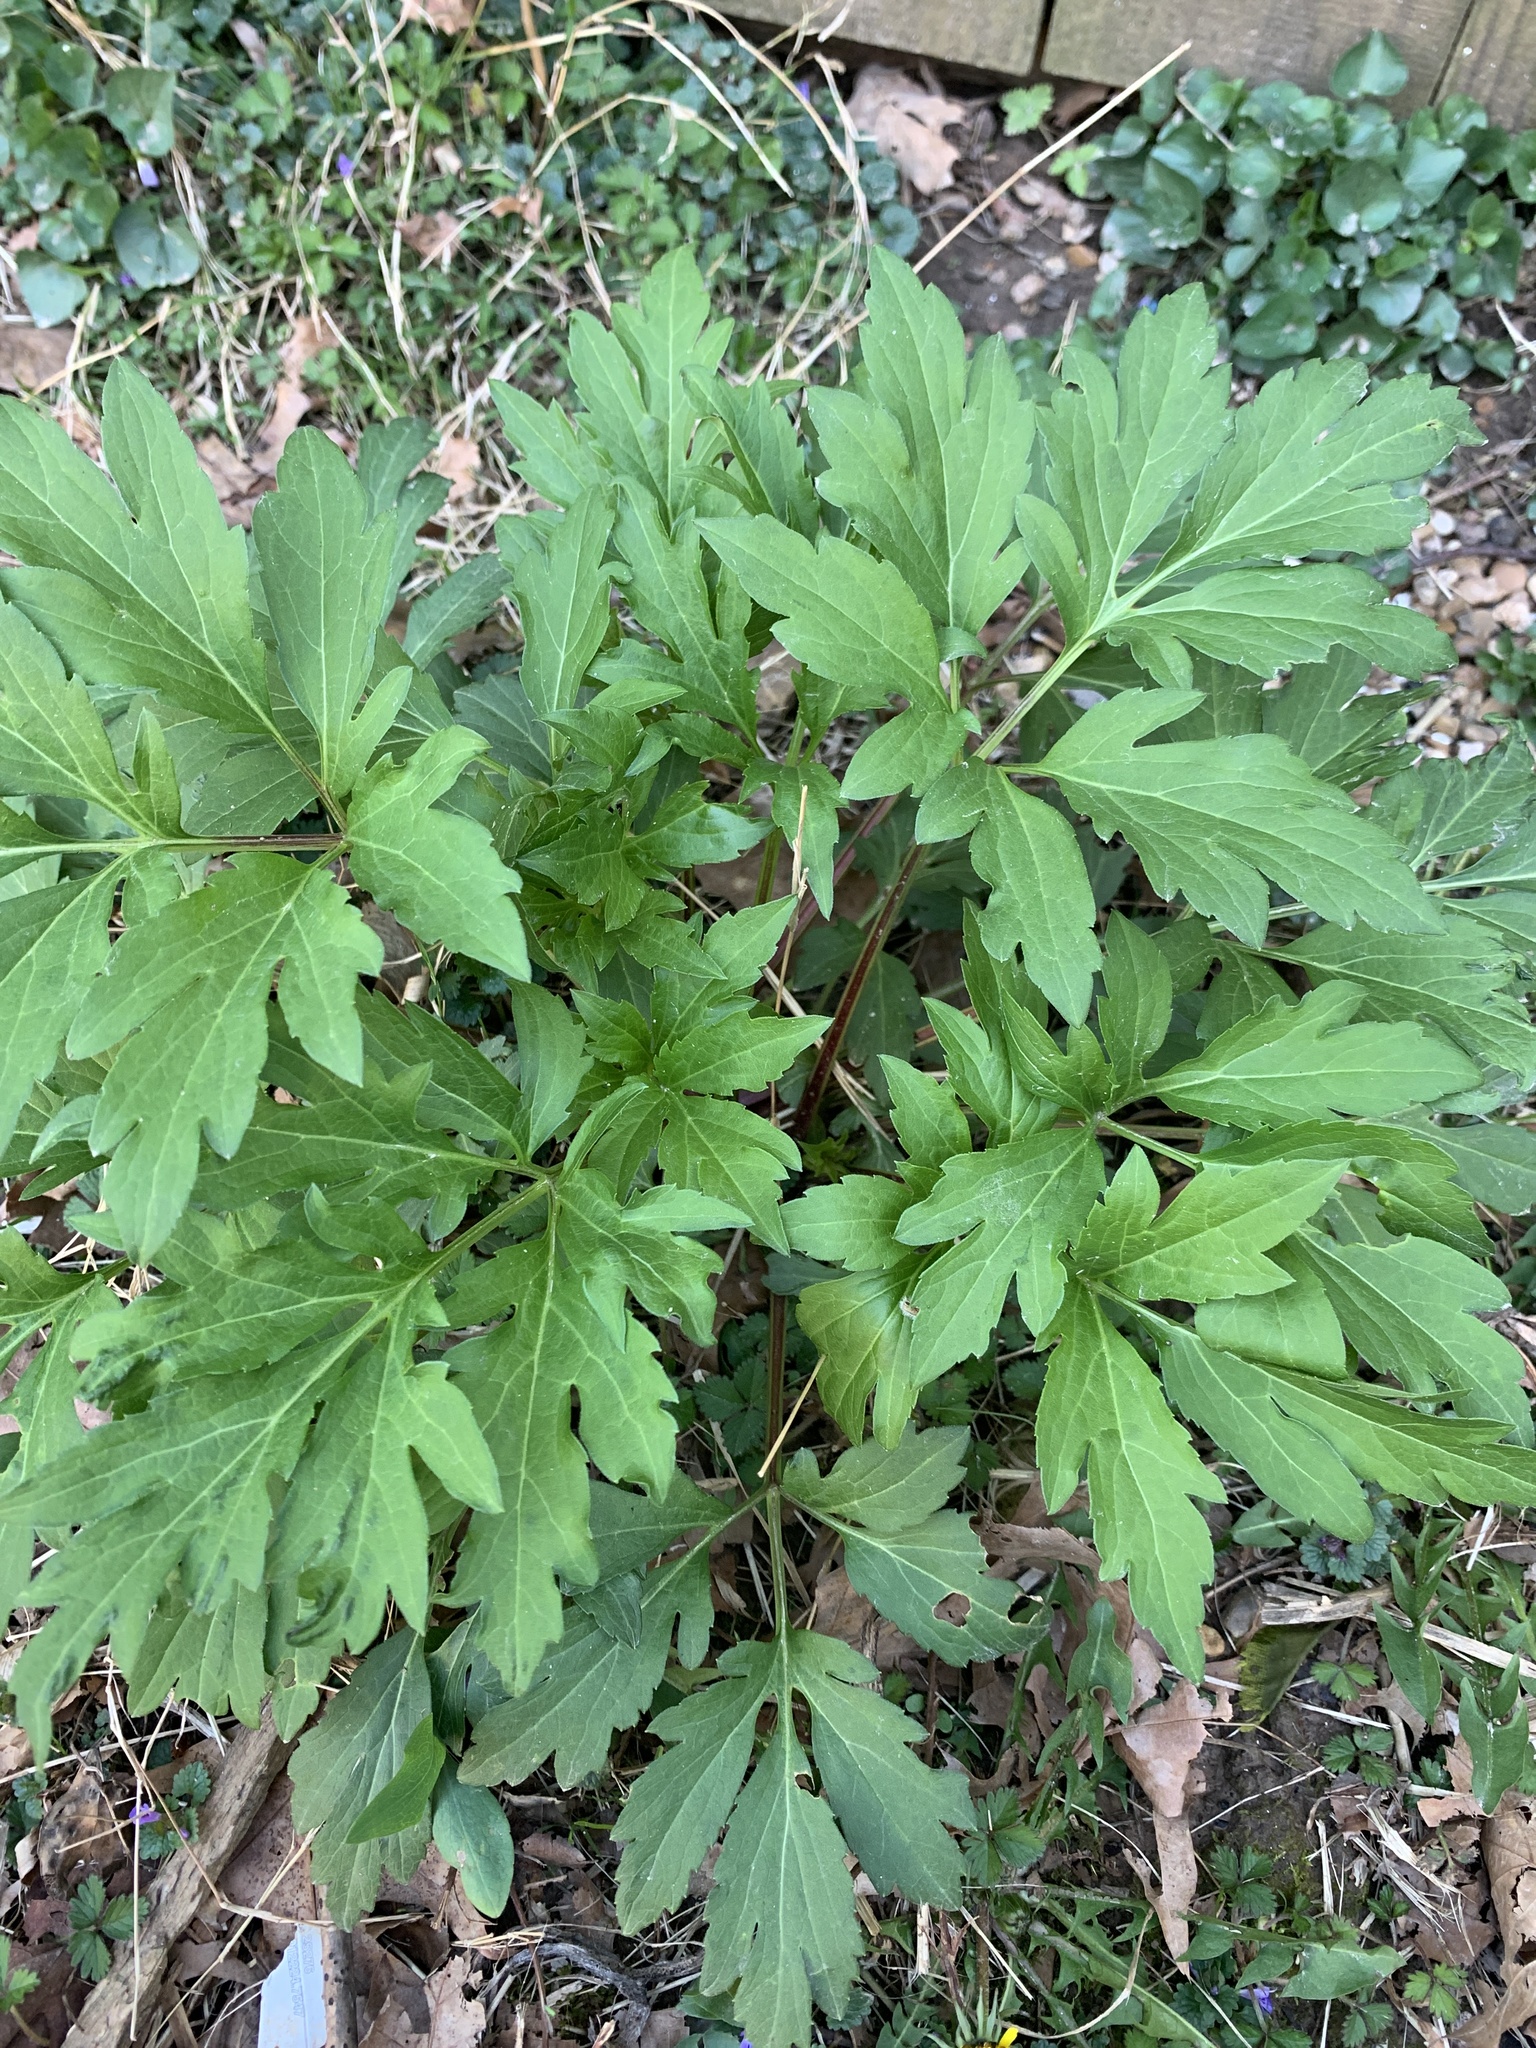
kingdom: Plantae
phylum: Tracheophyta
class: Magnoliopsida
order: Asterales
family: Asteraceae
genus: Rudbeckia
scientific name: Rudbeckia laciniata
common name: Coneflower
